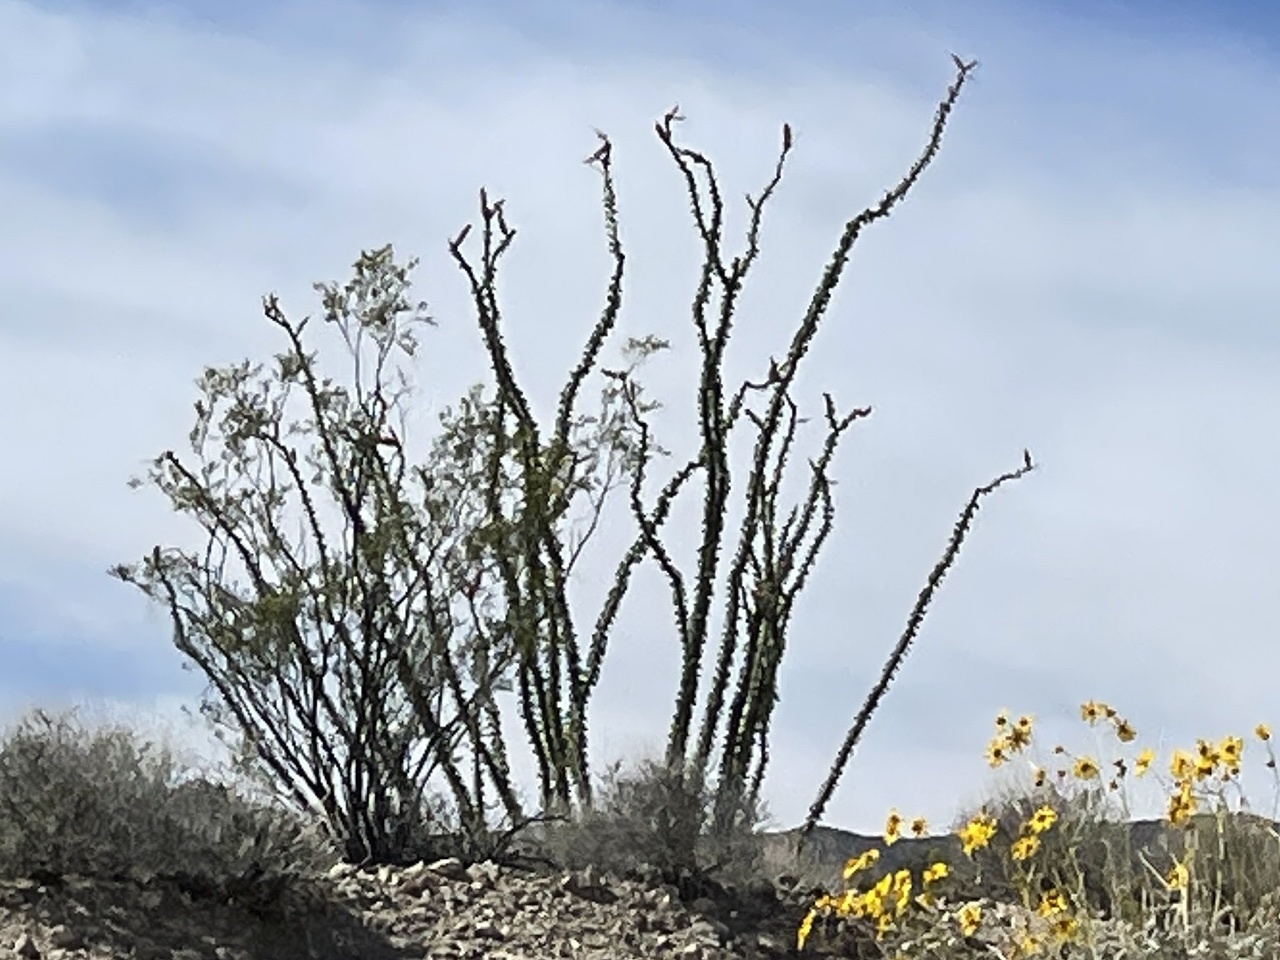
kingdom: Plantae
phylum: Tracheophyta
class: Magnoliopsida
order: Ericales
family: Fouquieriaceae
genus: Fouquieria
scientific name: Fouquieria splendens
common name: Vine-cactus
